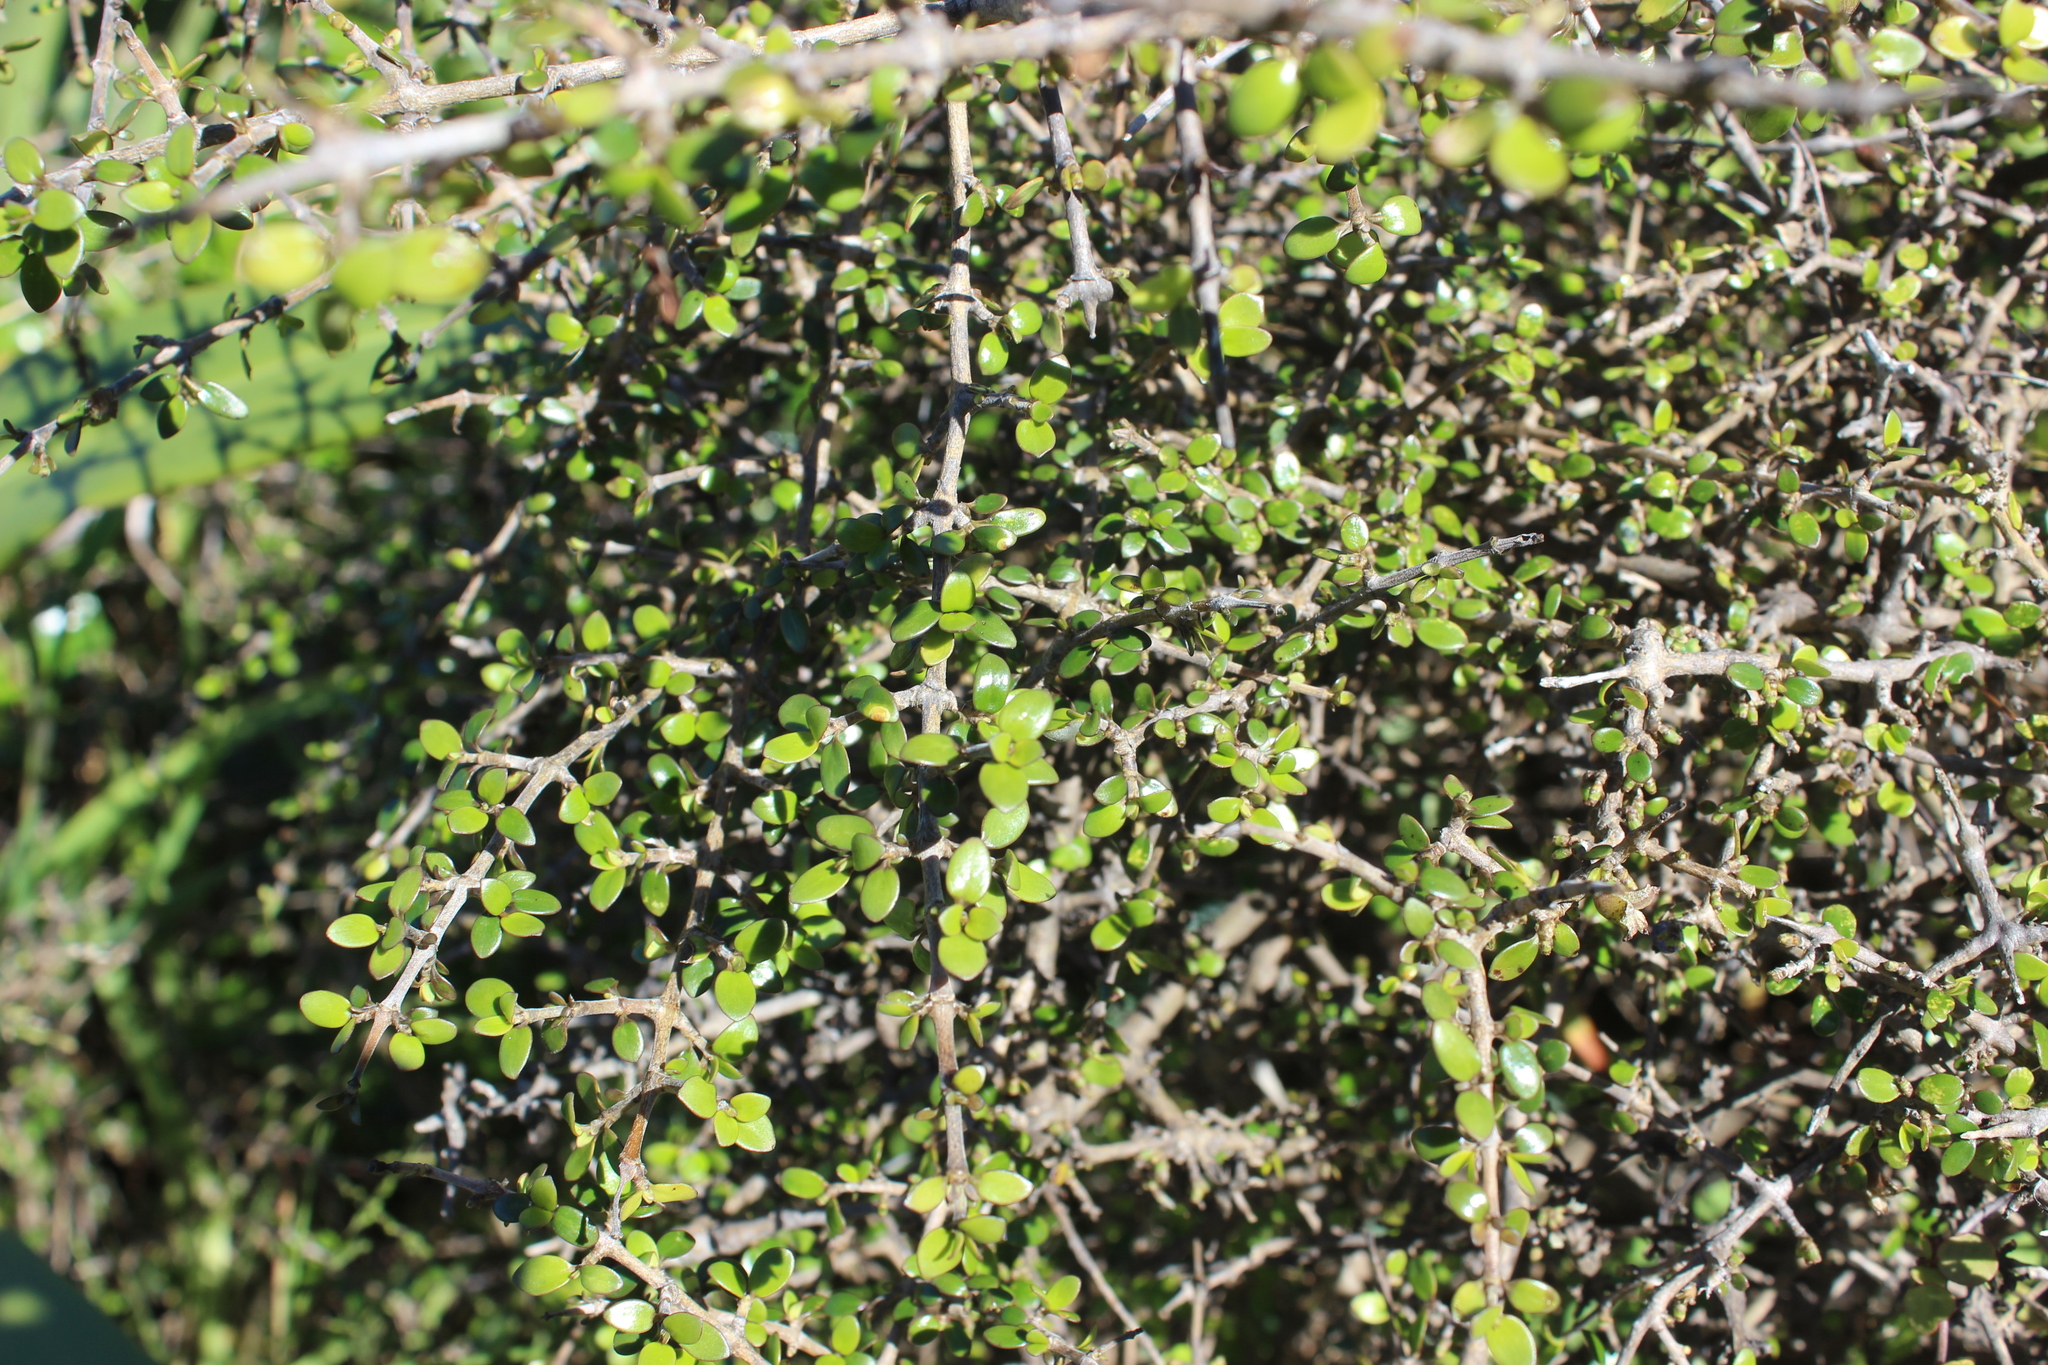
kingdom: Plantae
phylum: Tracheophyta
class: Magnoliopsida
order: Gentianales
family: Rubiaceae
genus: Coprosma
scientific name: Coprosma propinqua
